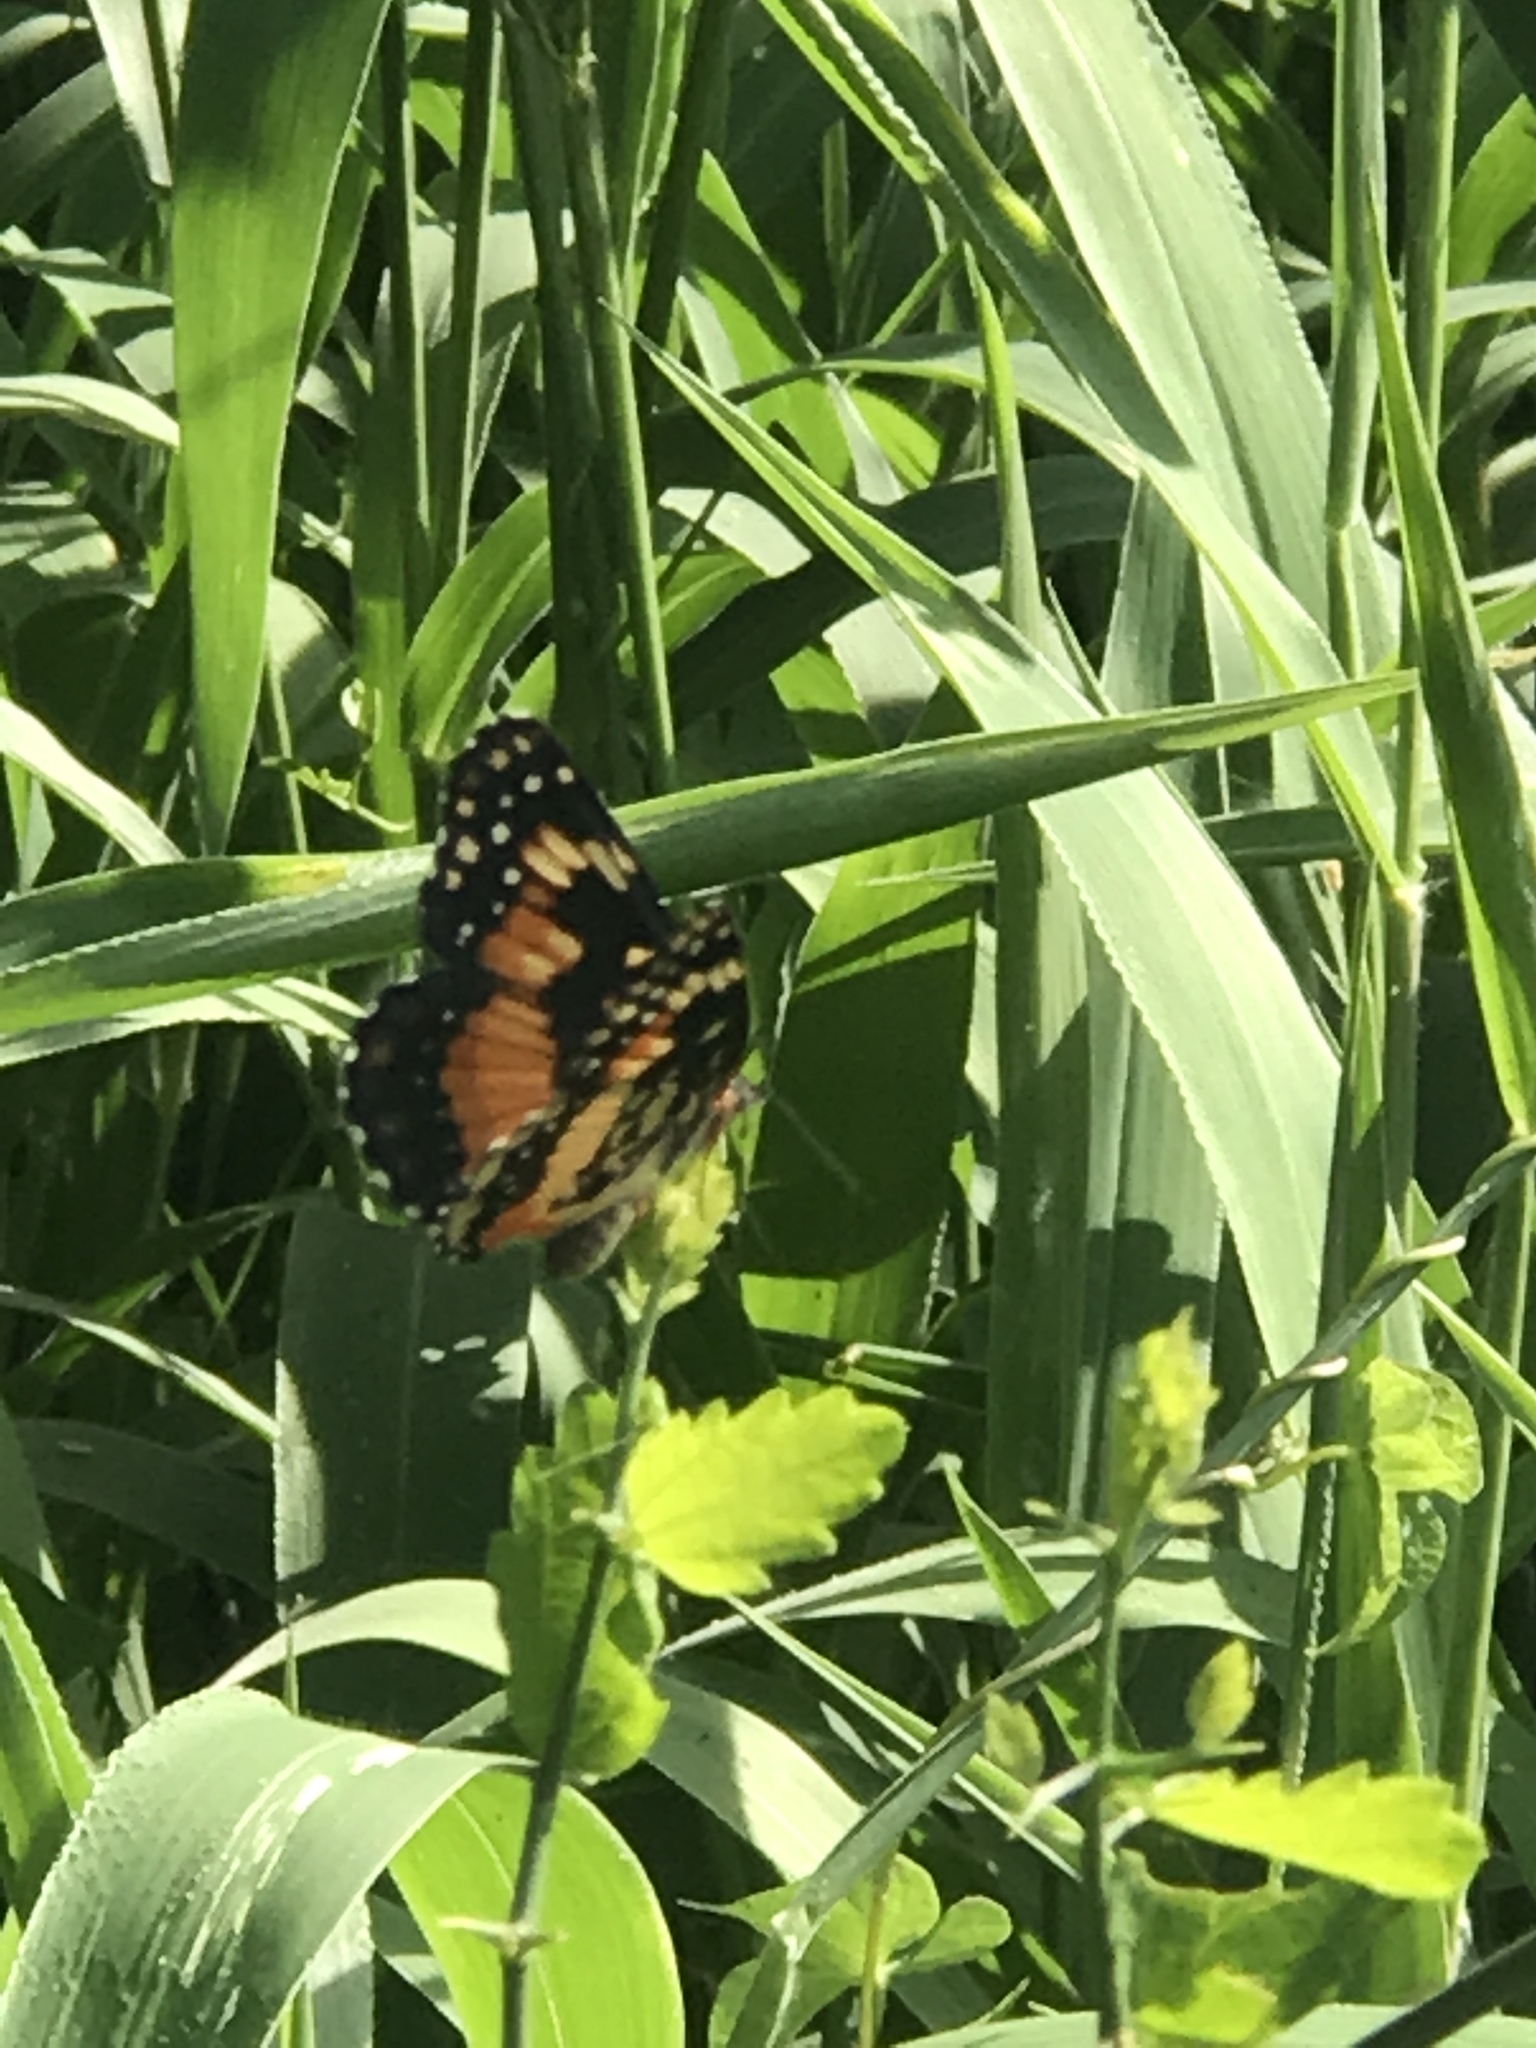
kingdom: Animalia
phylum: Arthropoda
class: Insecta
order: Lepidoptera
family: Nymphalidae
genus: Chlosyne
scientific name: Chlosyne lacinia
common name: Bordered patch
